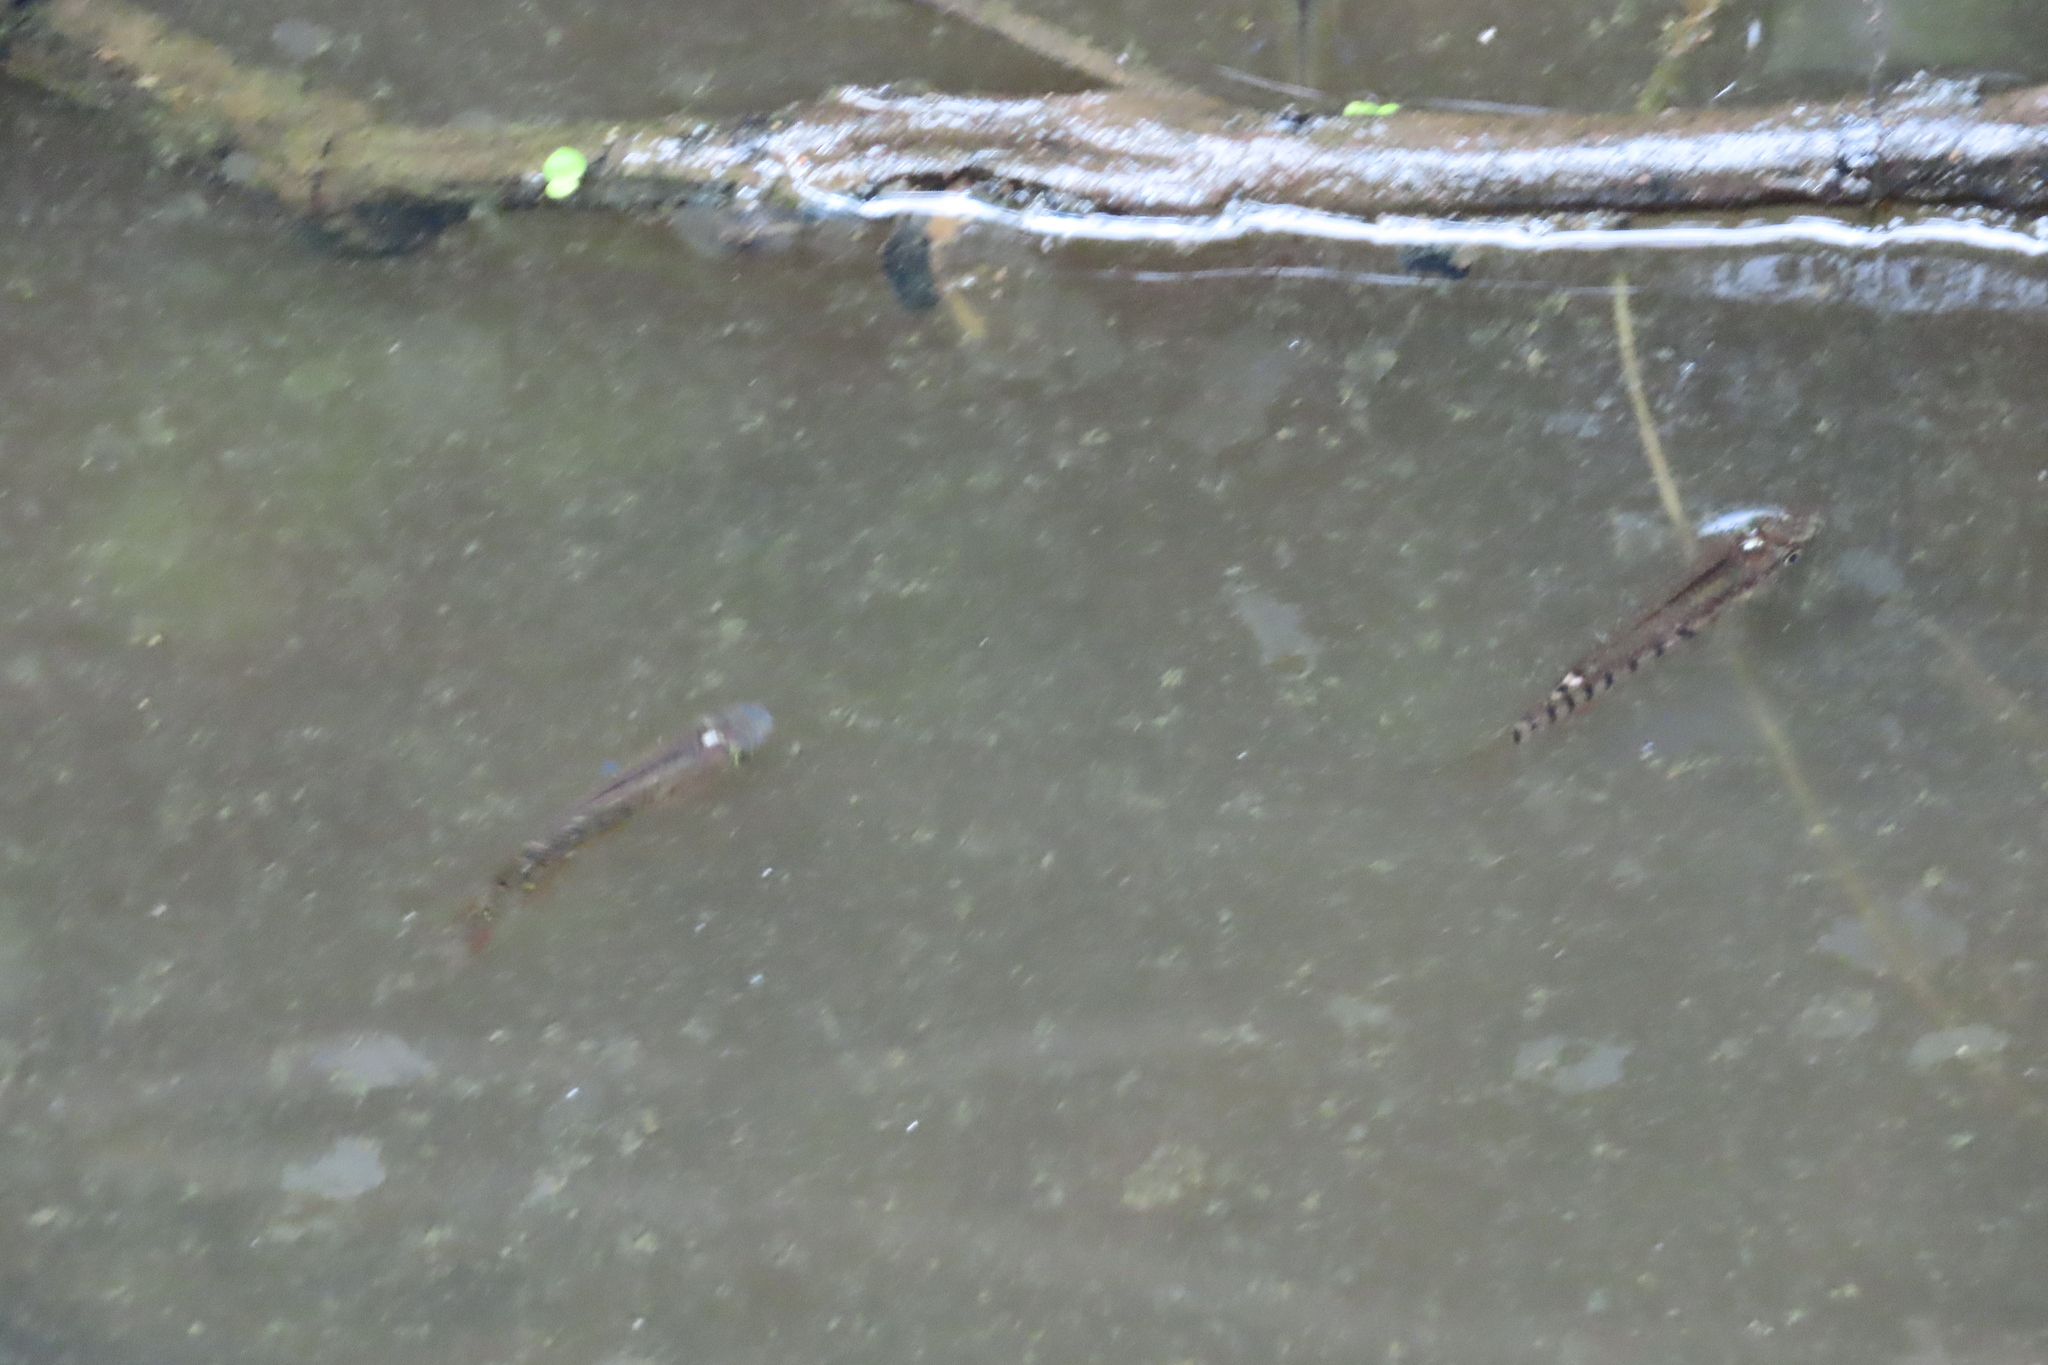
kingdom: Animalia
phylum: Chordata
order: Cyprinodontiformes
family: Aplocheilidae
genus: Aplocheilus
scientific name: Aplocheilus lineatus
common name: Striped panchax
